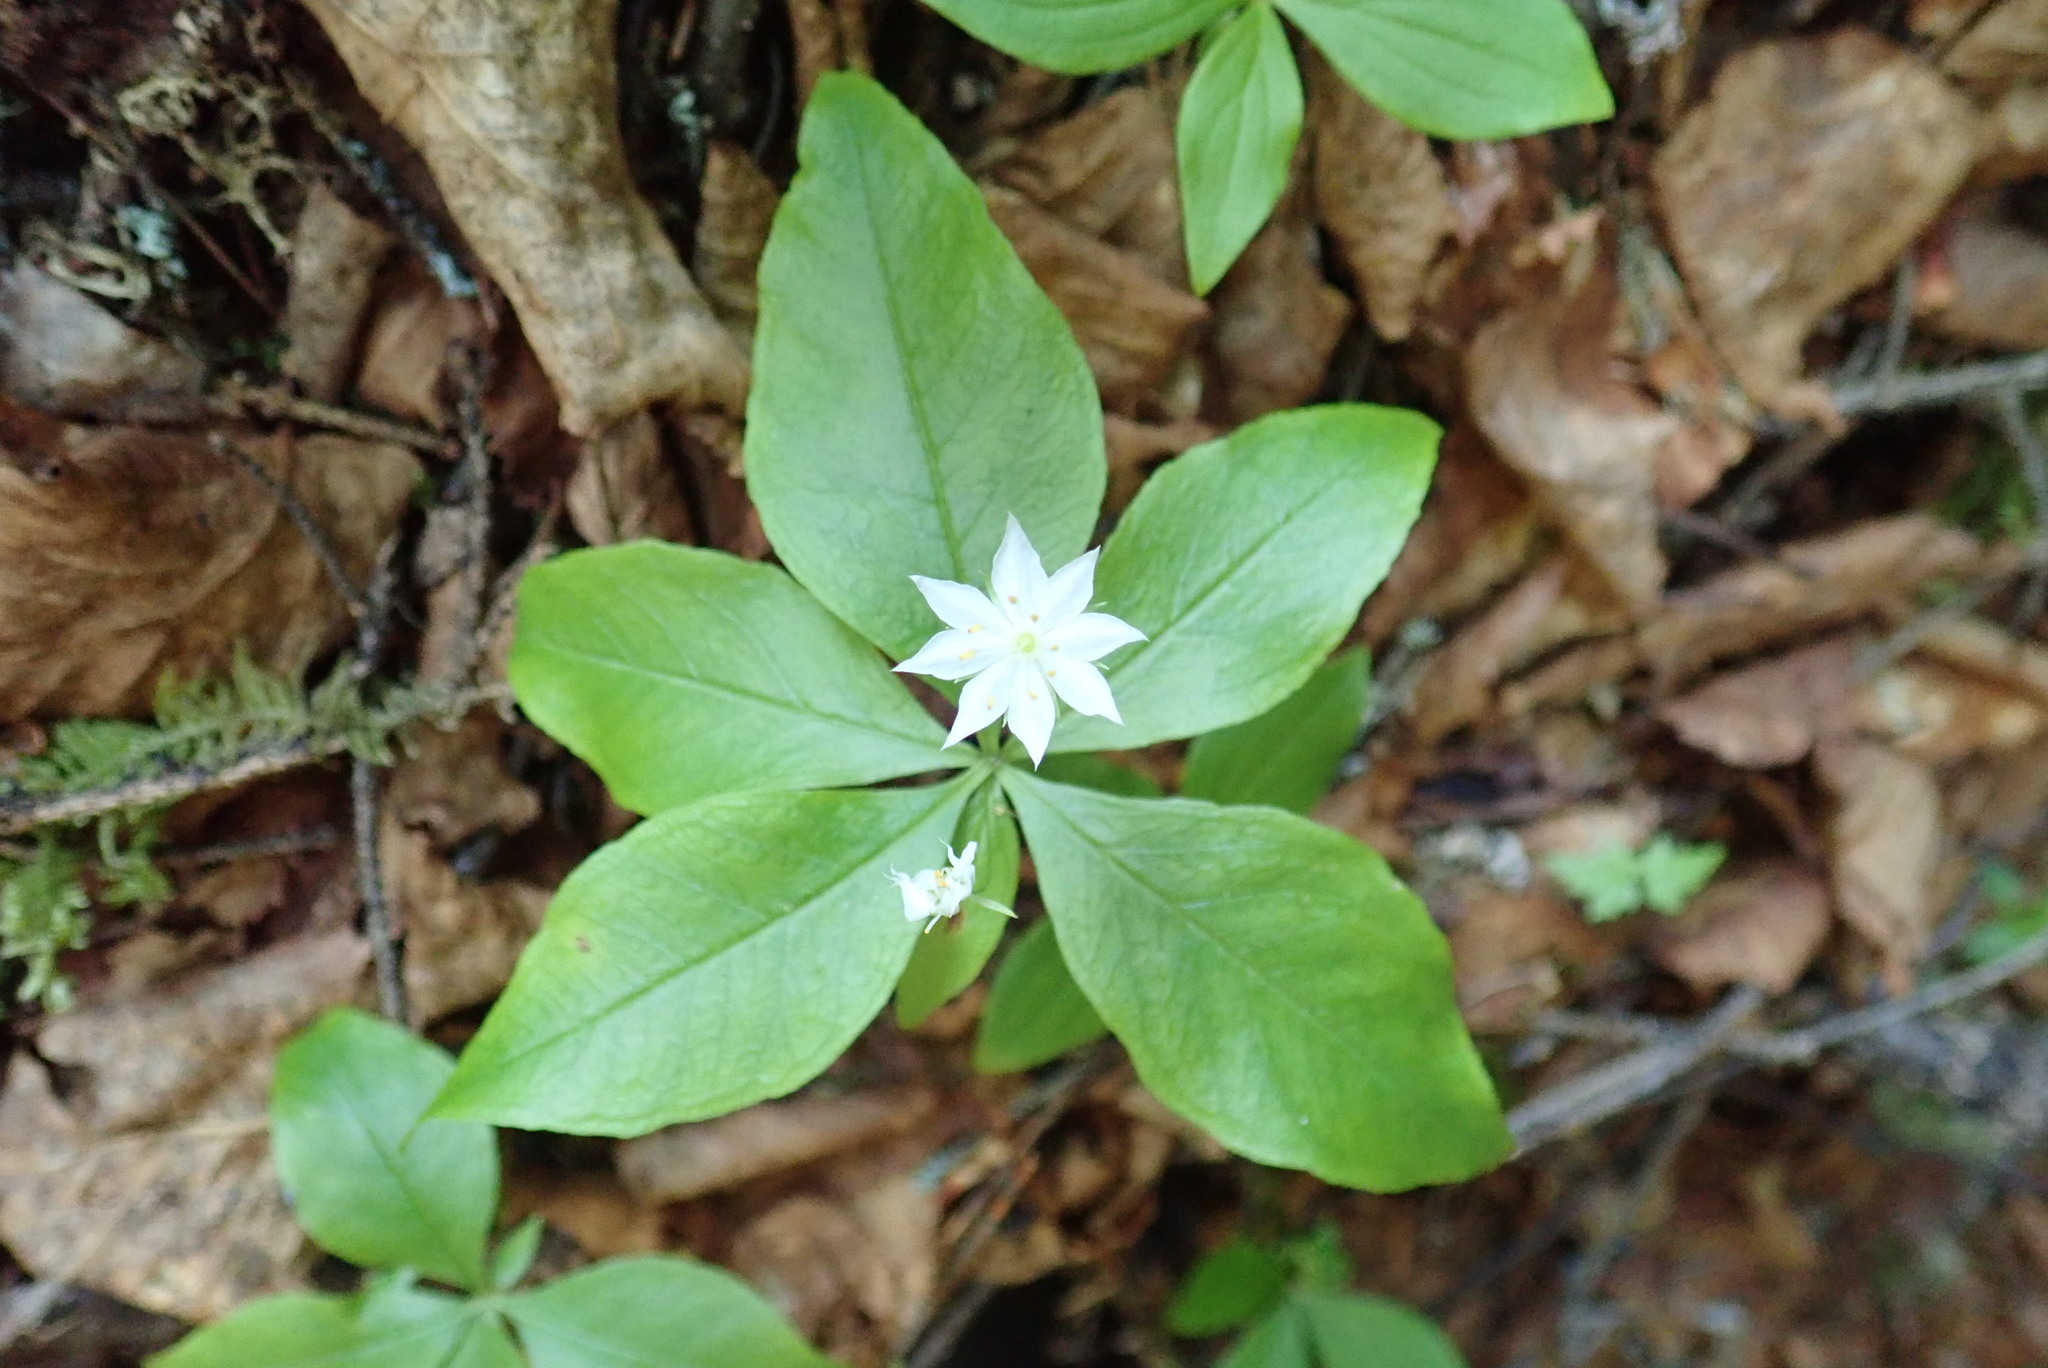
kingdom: Plantae
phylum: Tracheophyta
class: Magnoliopsida
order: Ericales
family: Primulaceae
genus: Lysimachia
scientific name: Lysimachia borealis
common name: American starflower
